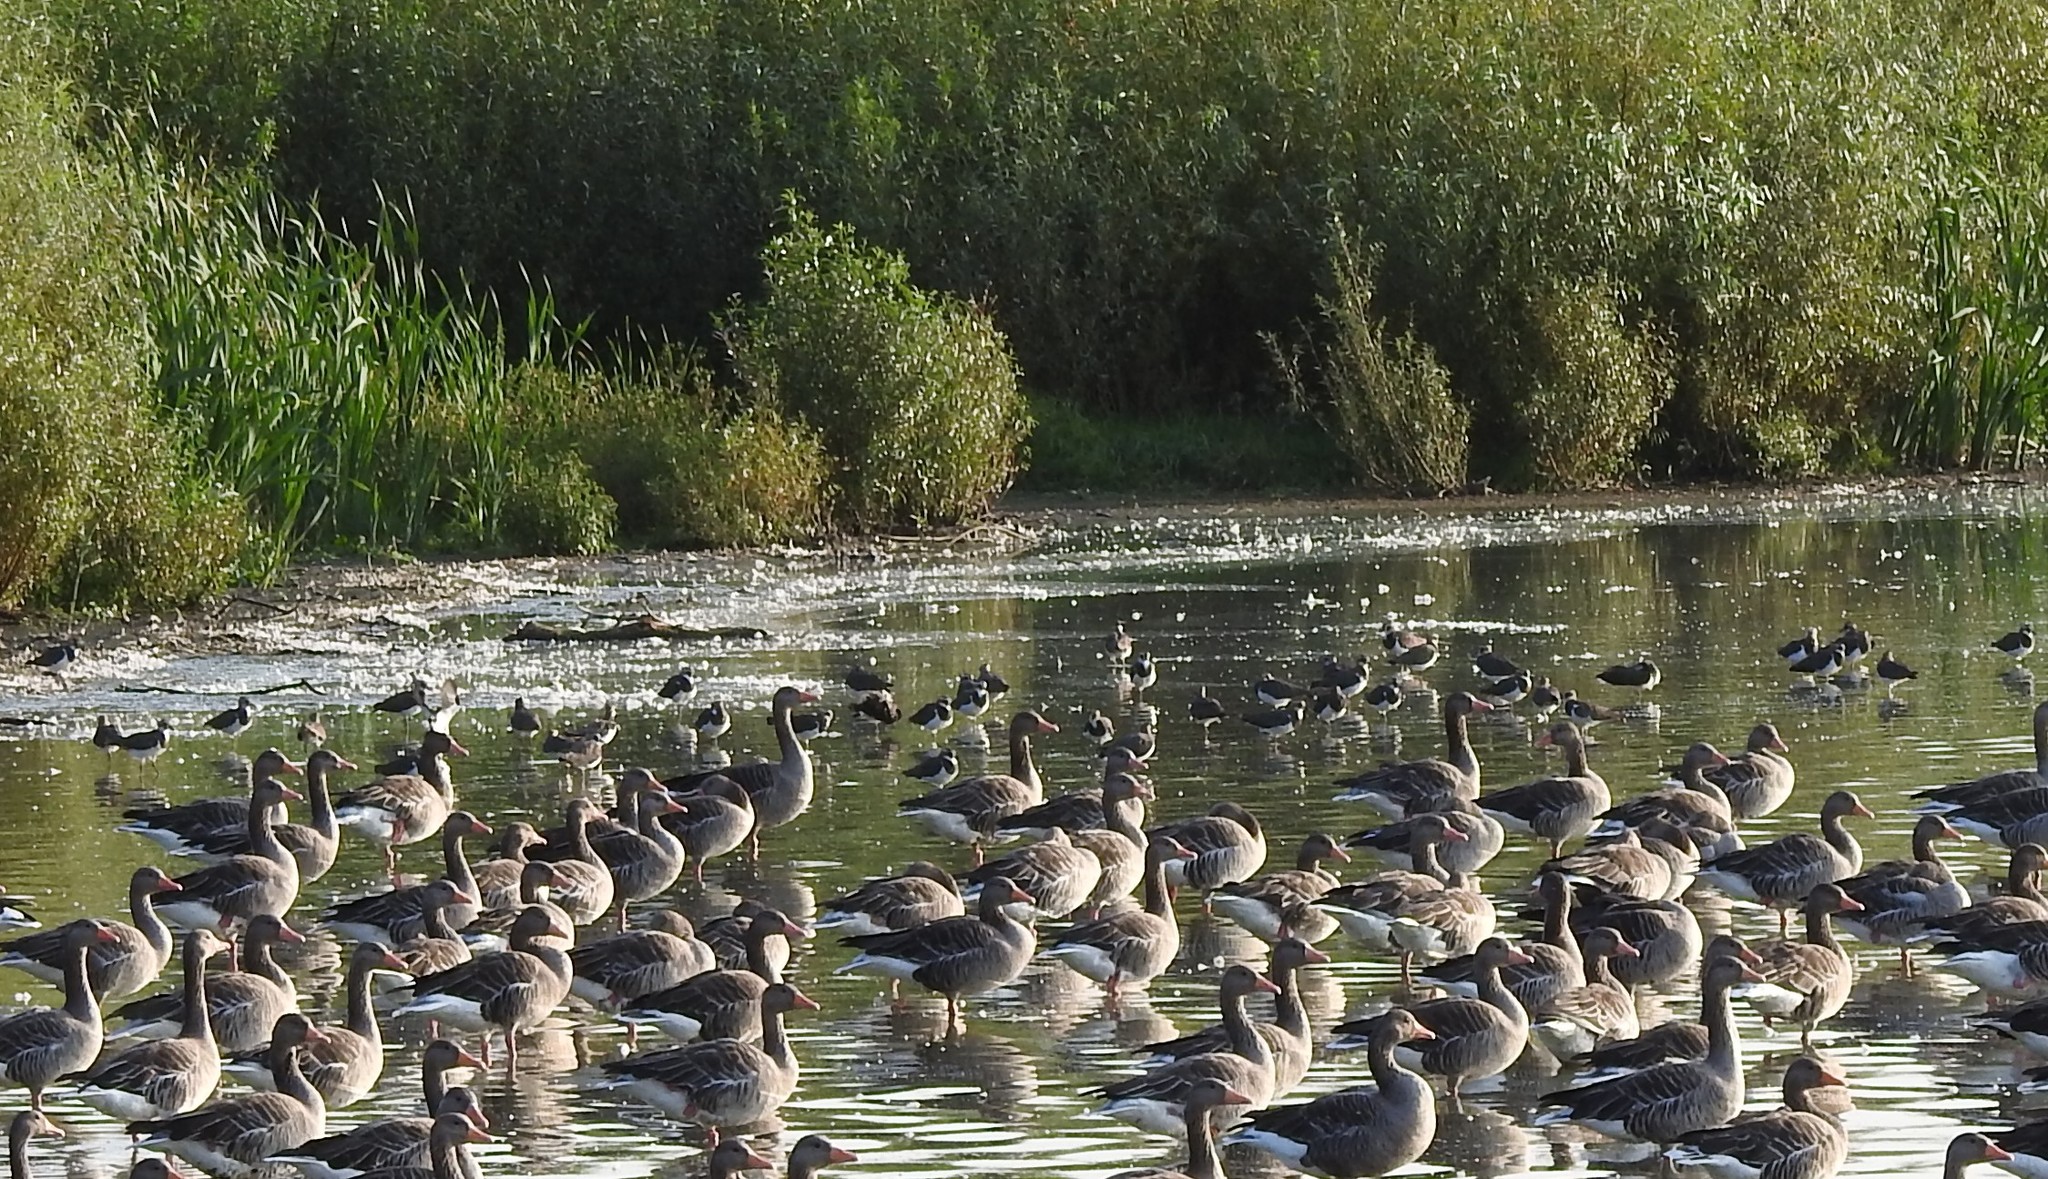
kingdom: Animalia
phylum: Chordata
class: Aves
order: Anseriformes
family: Anatidae
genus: Anser
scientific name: Anser anser
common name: Greylag goose
